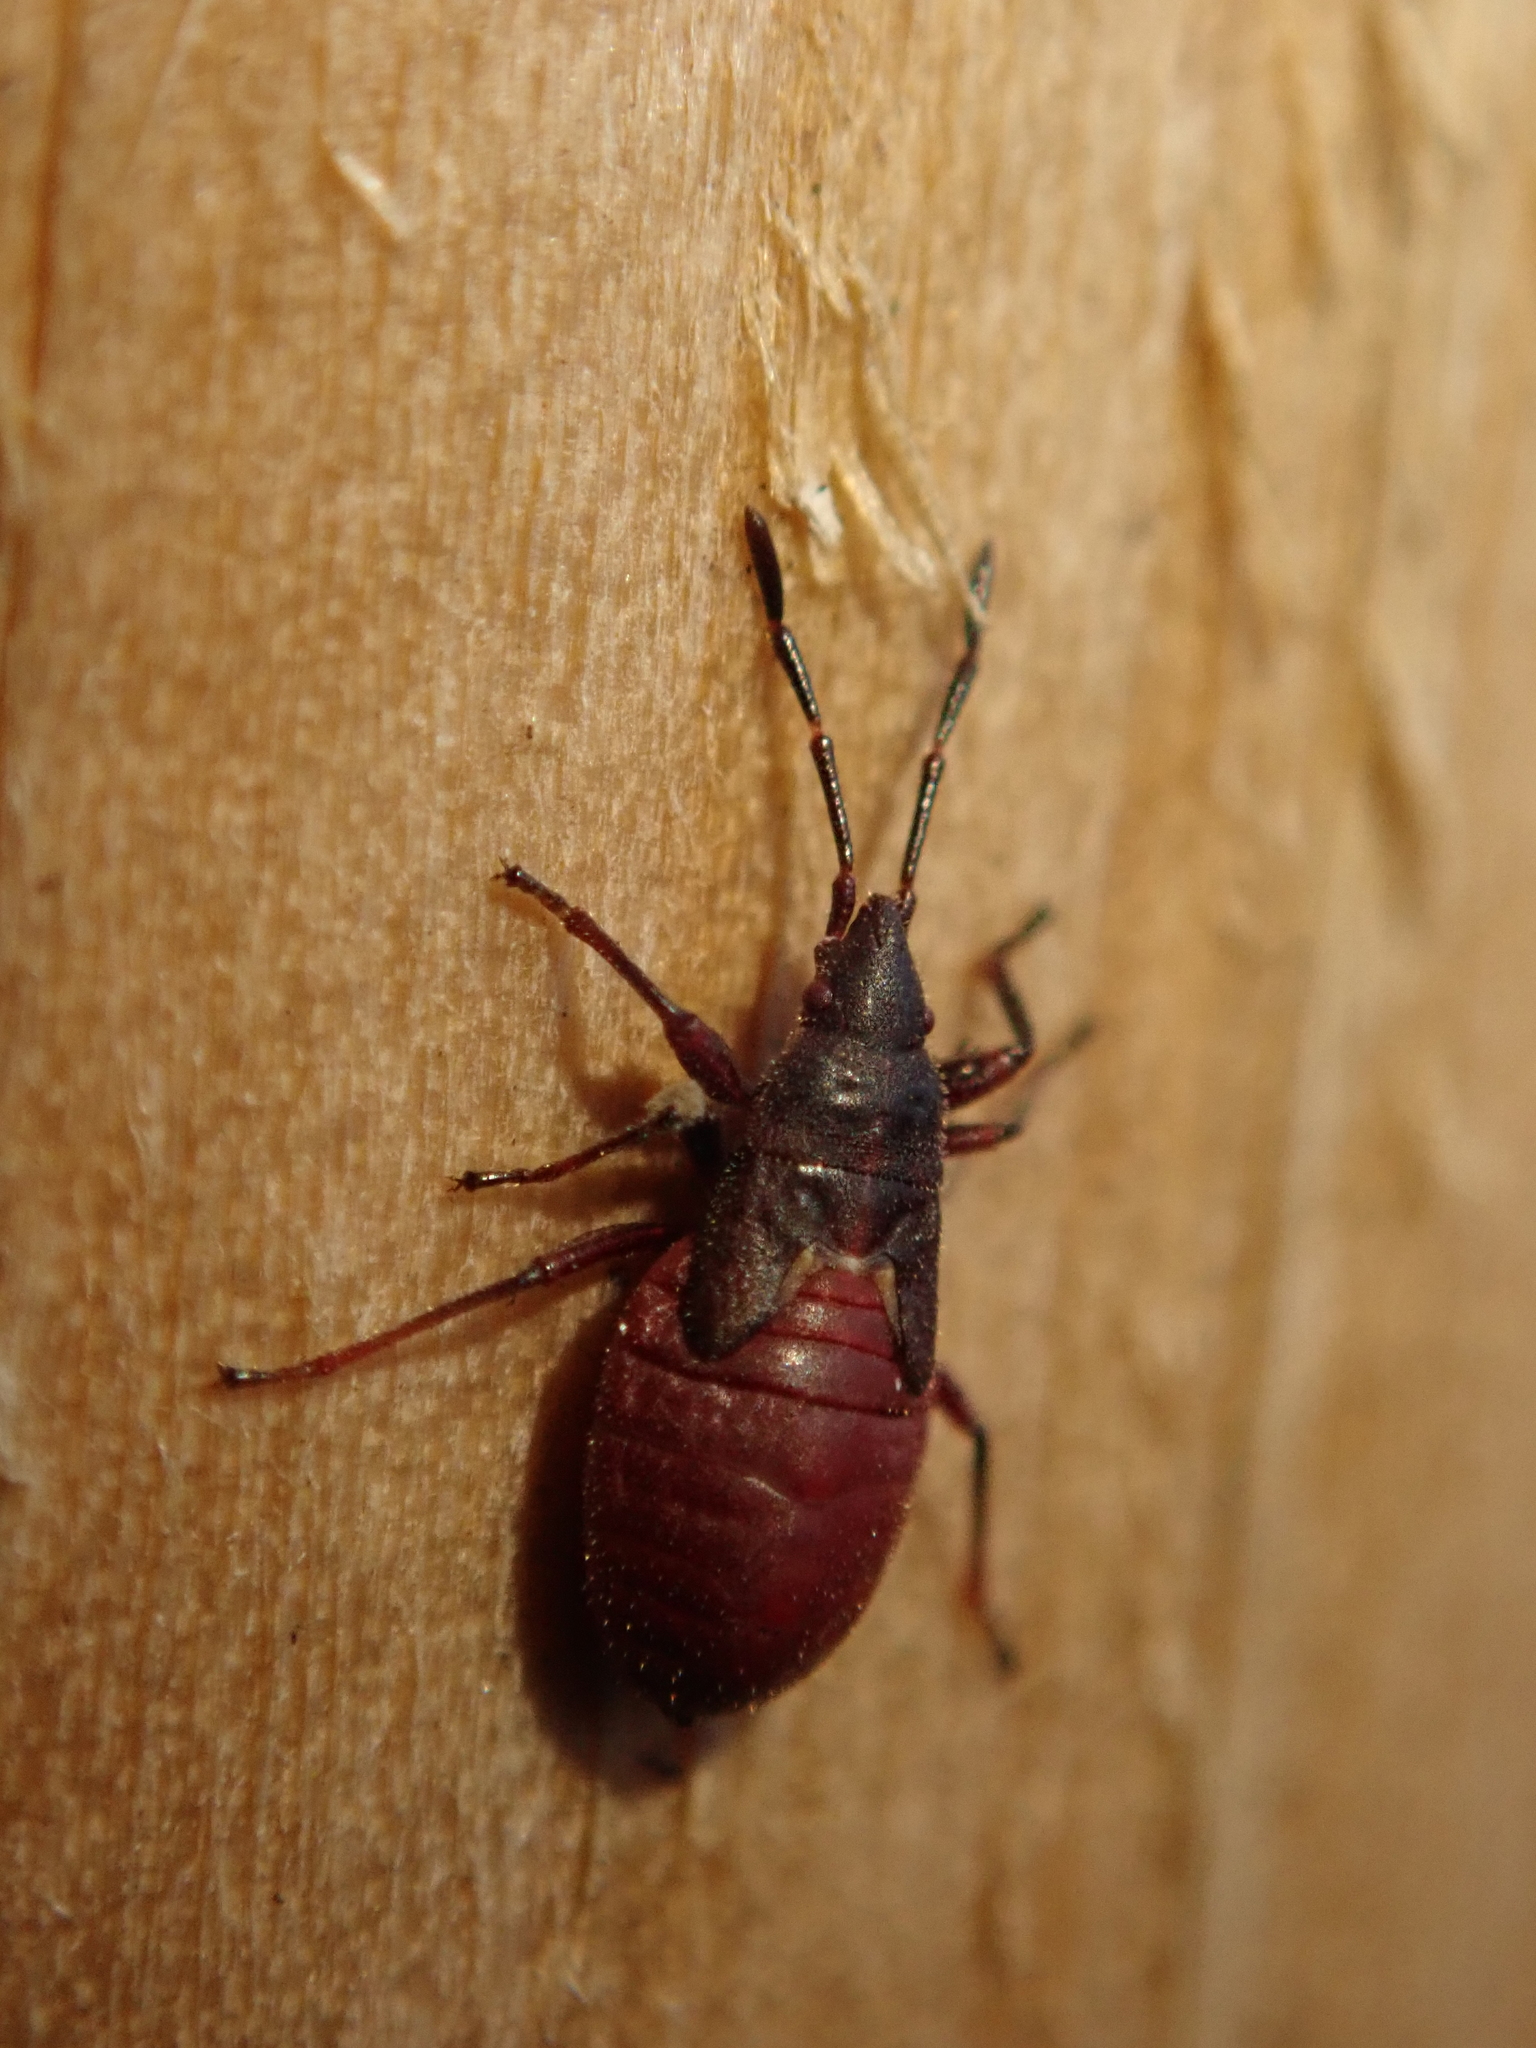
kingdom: Animalia
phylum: Arthropoda
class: Insecta
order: Hemiptera
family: Oxycarenidae
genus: Oxycarenus
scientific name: Oxycarenus lavaterae
